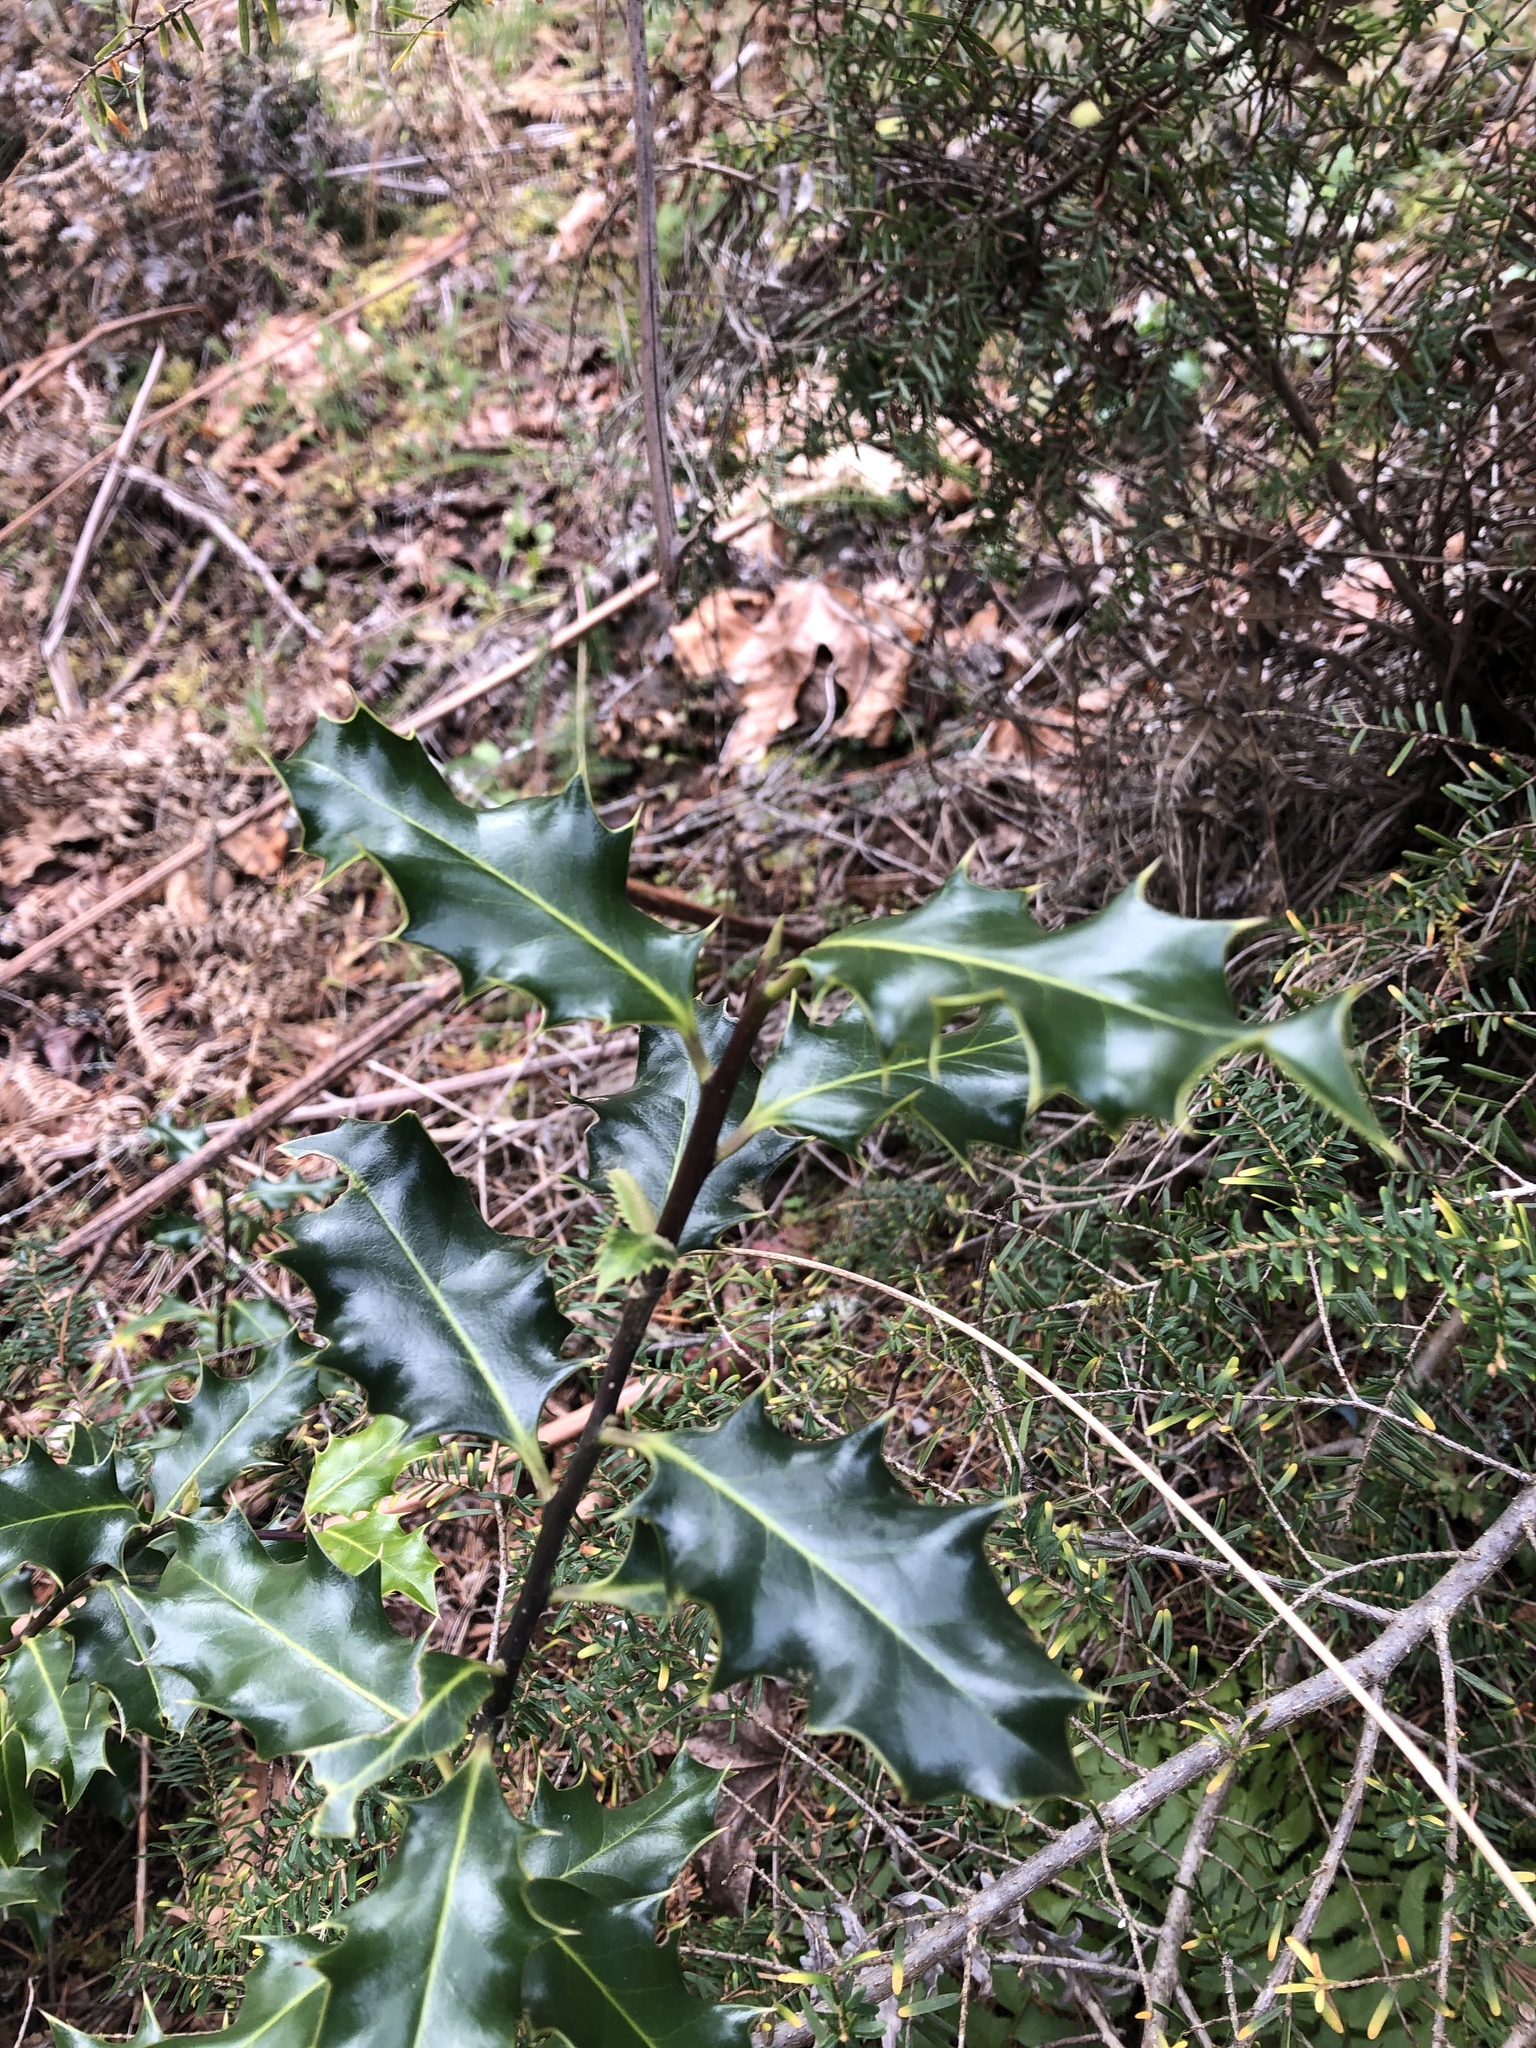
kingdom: Plantae
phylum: Tracheophyta
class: Magnoliopsida
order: Aquifoliales
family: Aquifoliaceae
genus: Ilex
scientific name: Ilex aquifolium
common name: English holly
